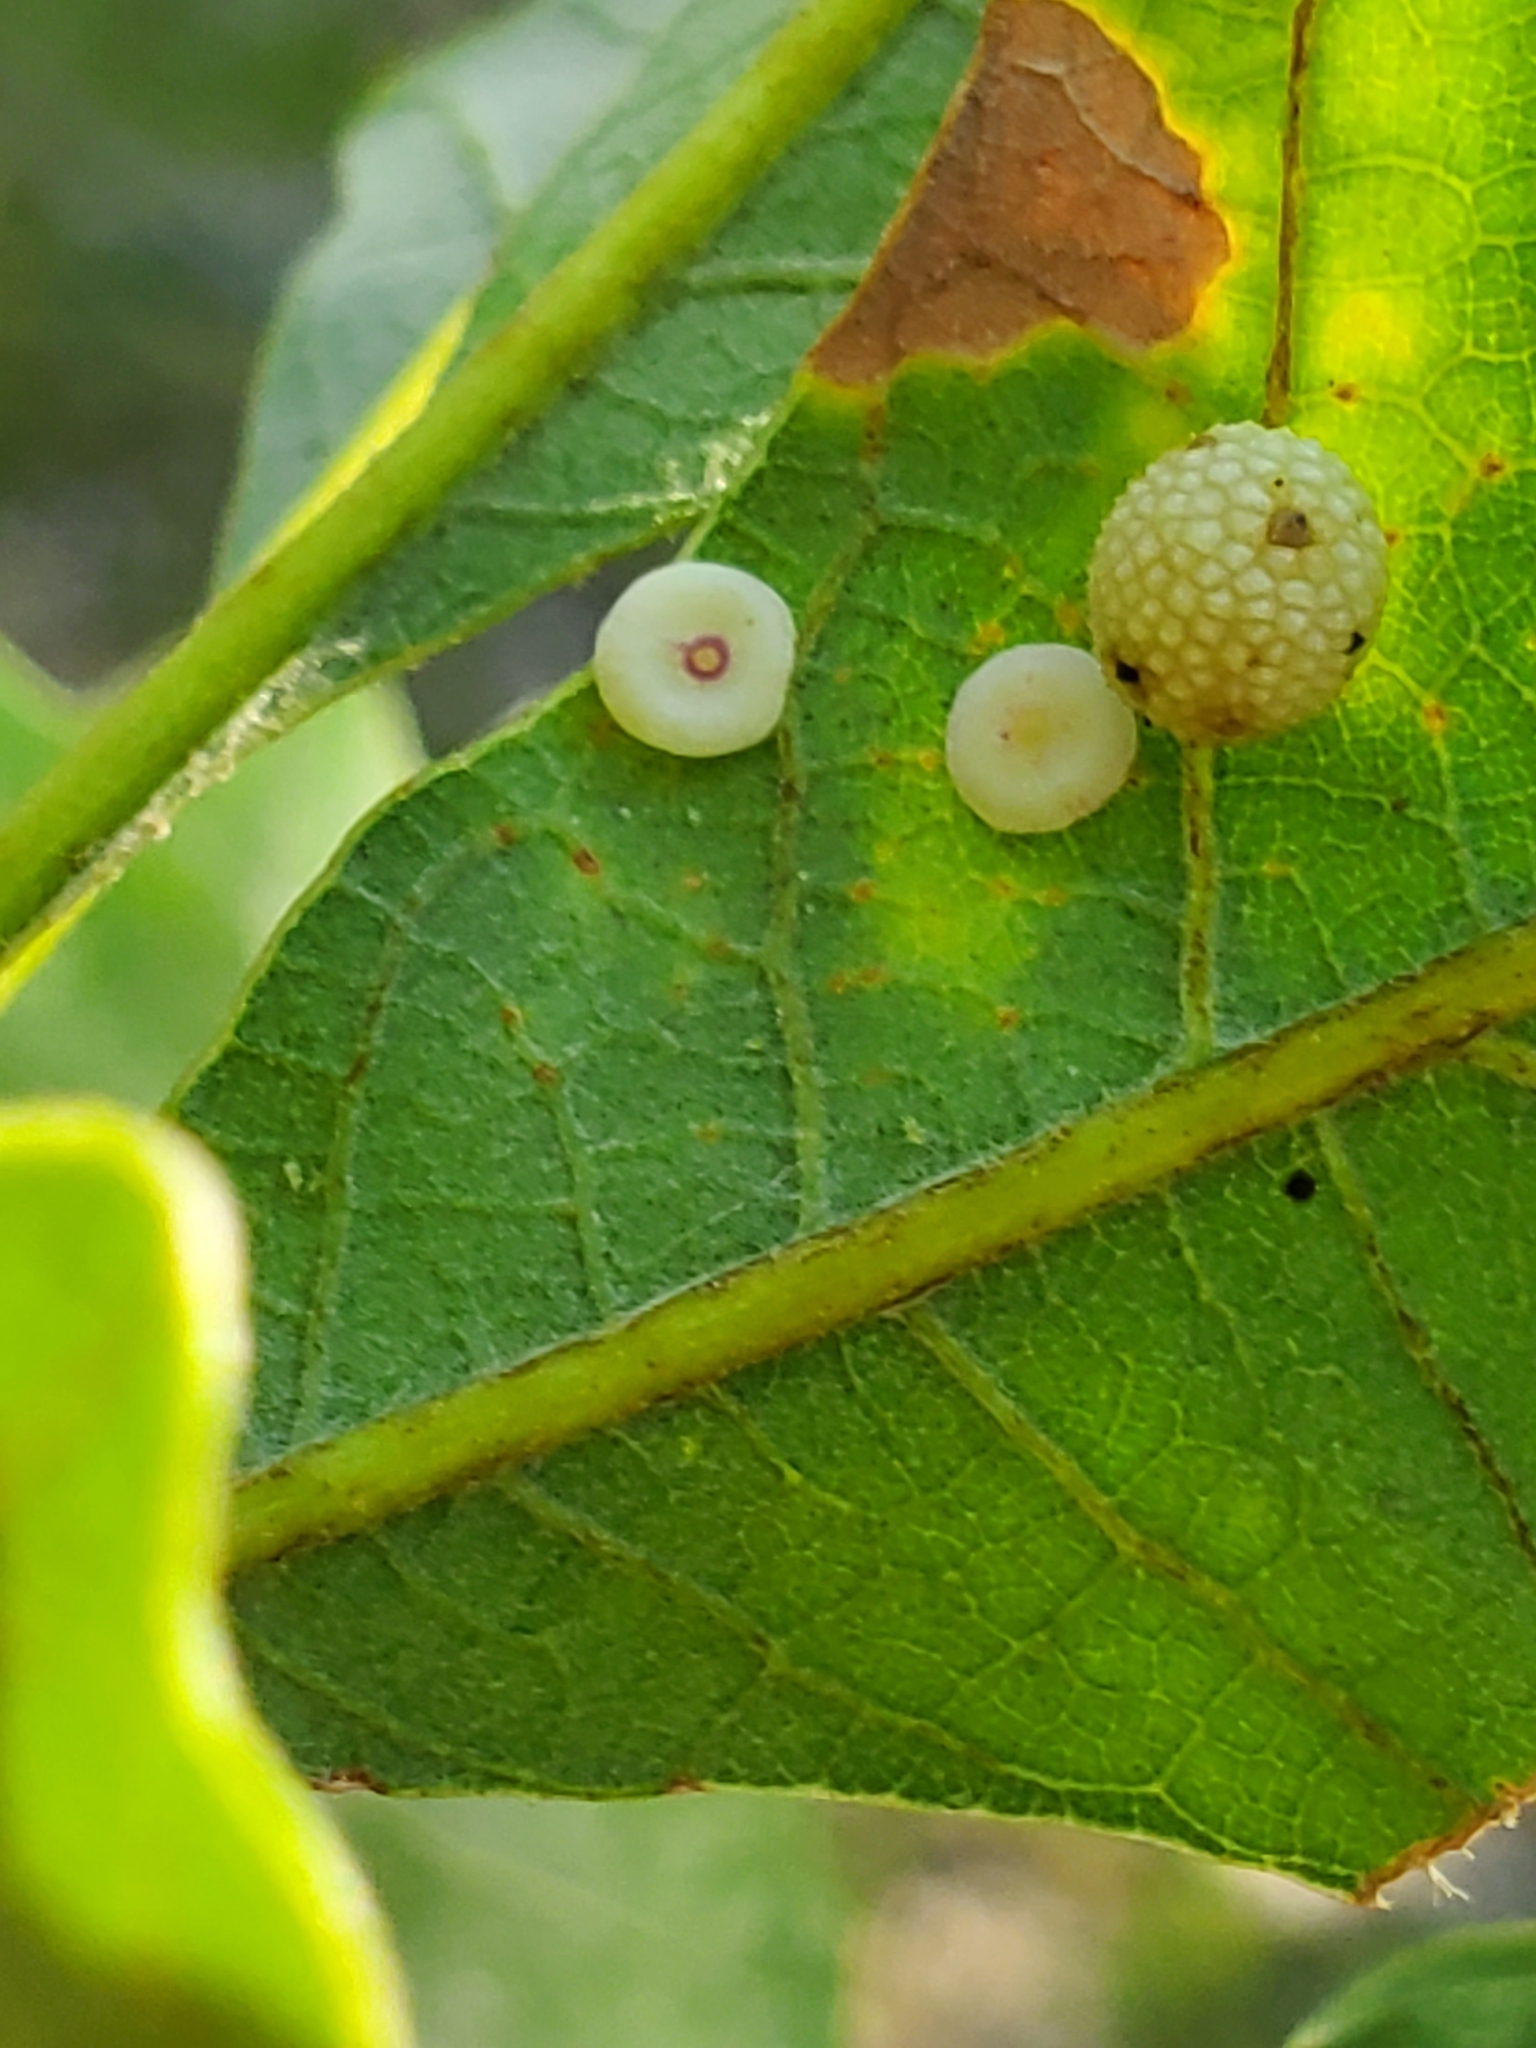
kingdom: Animalia
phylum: Arthropoda
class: Insecta
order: Hymenoptera
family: Cynipidae
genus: Phylloteras
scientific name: Phylloteras poculum
